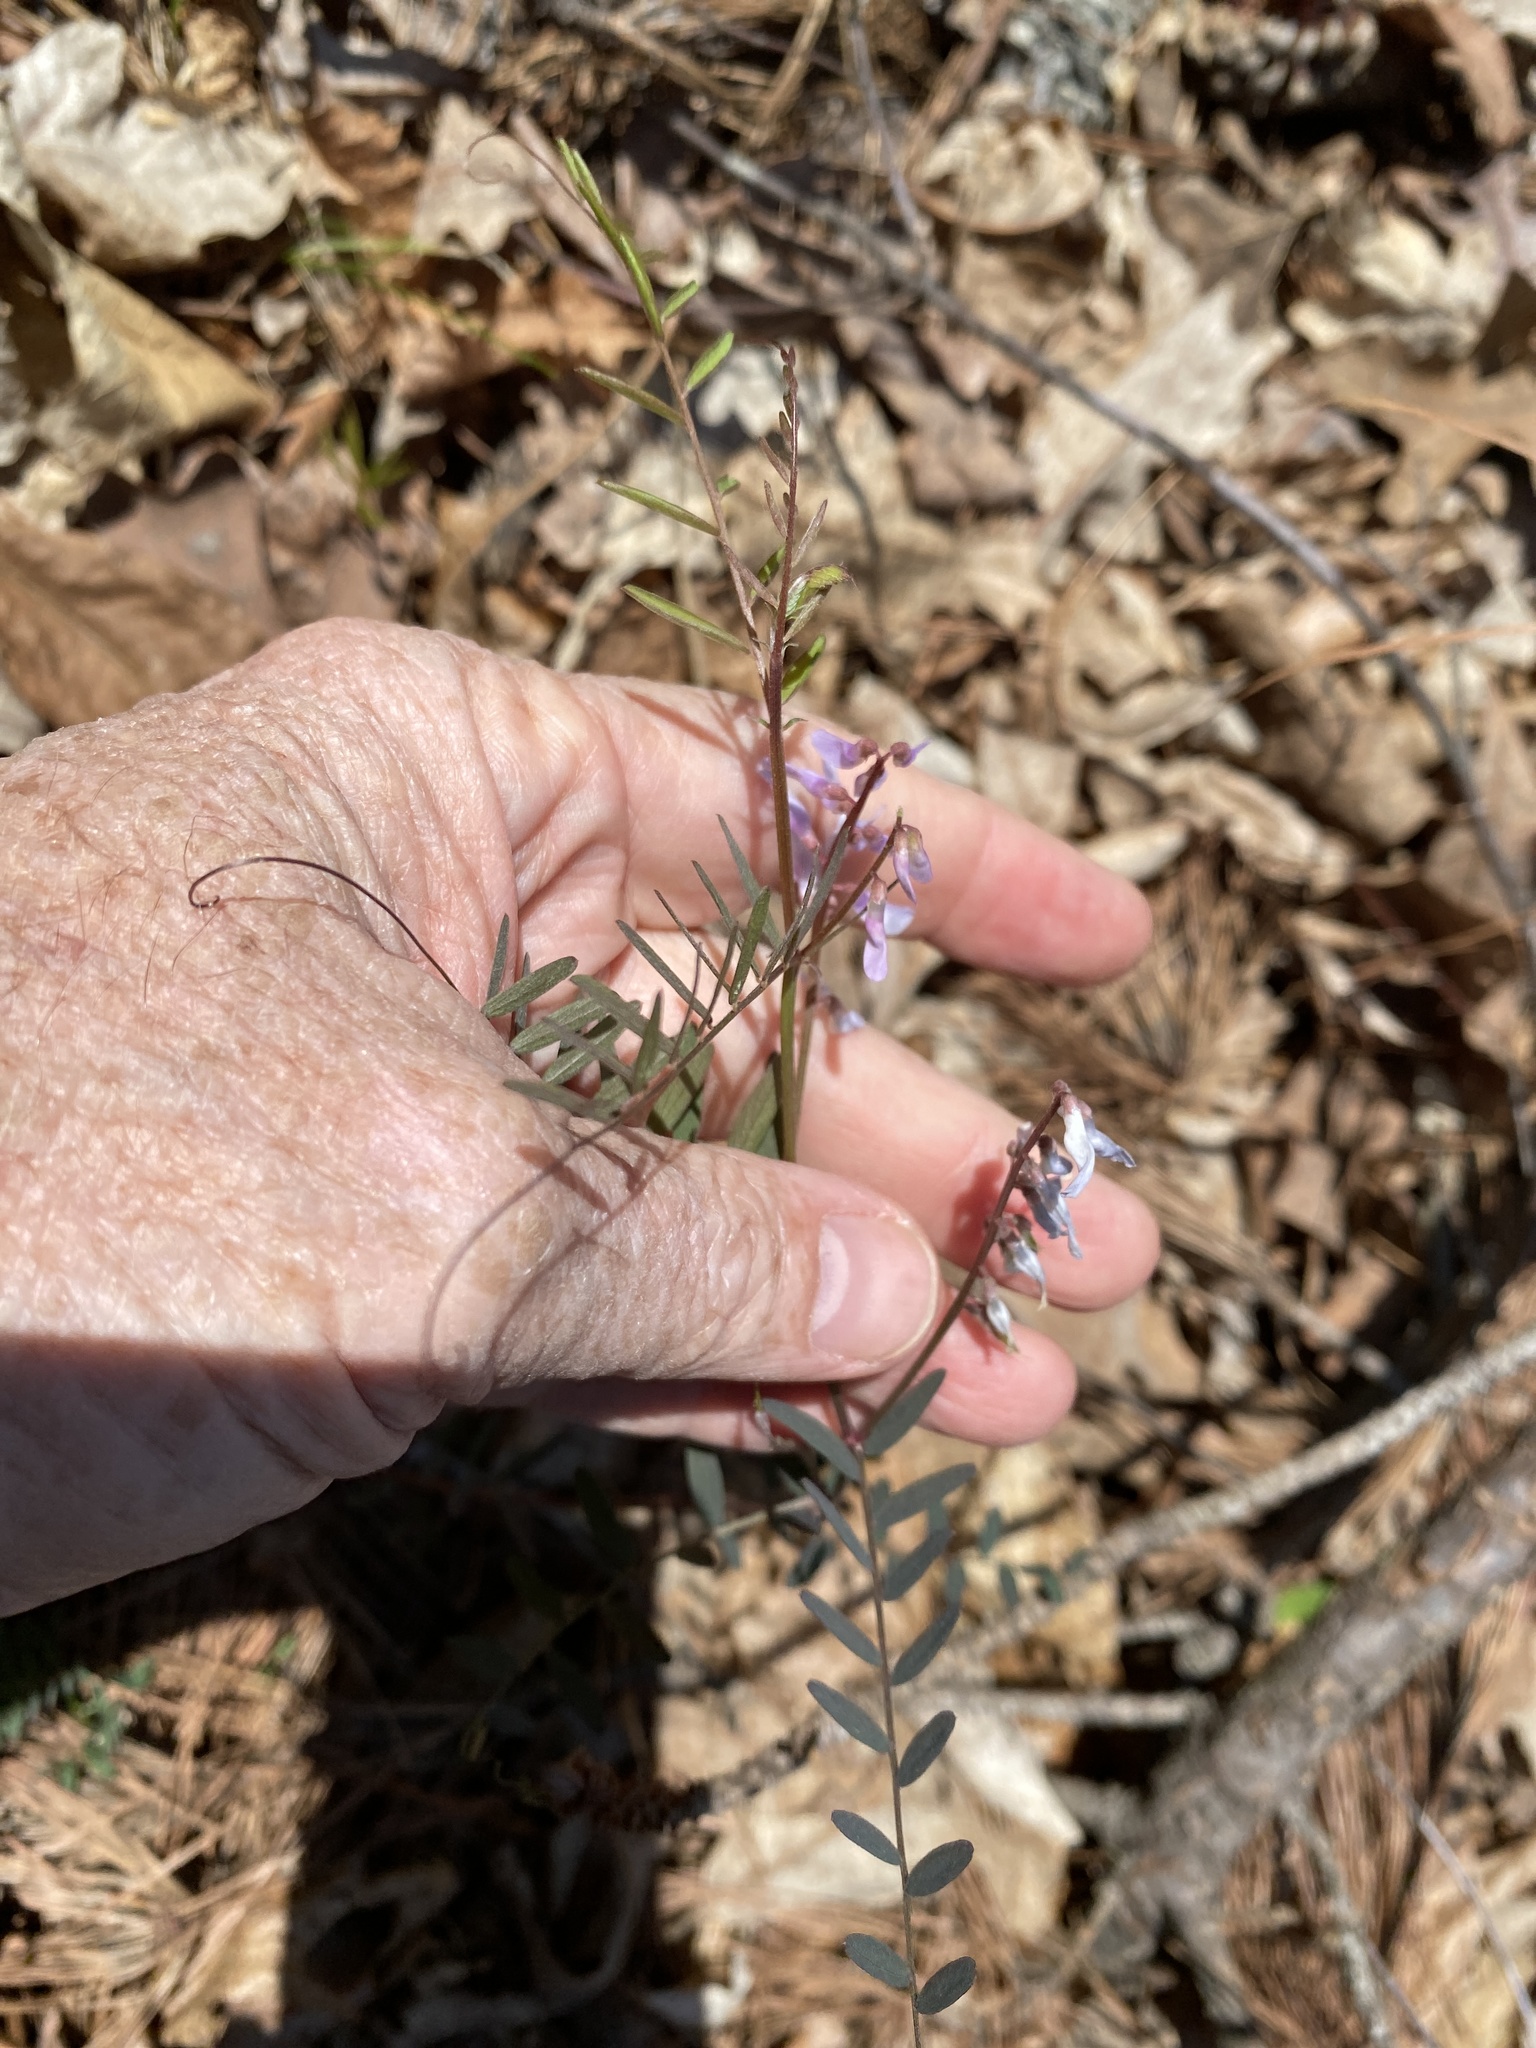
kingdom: Plantae
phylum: Tracheophyta
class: Magnoliopsida
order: Fabales
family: Fabaceae
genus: Vicia
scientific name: Vicia caroliniana
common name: Carolina vetch
